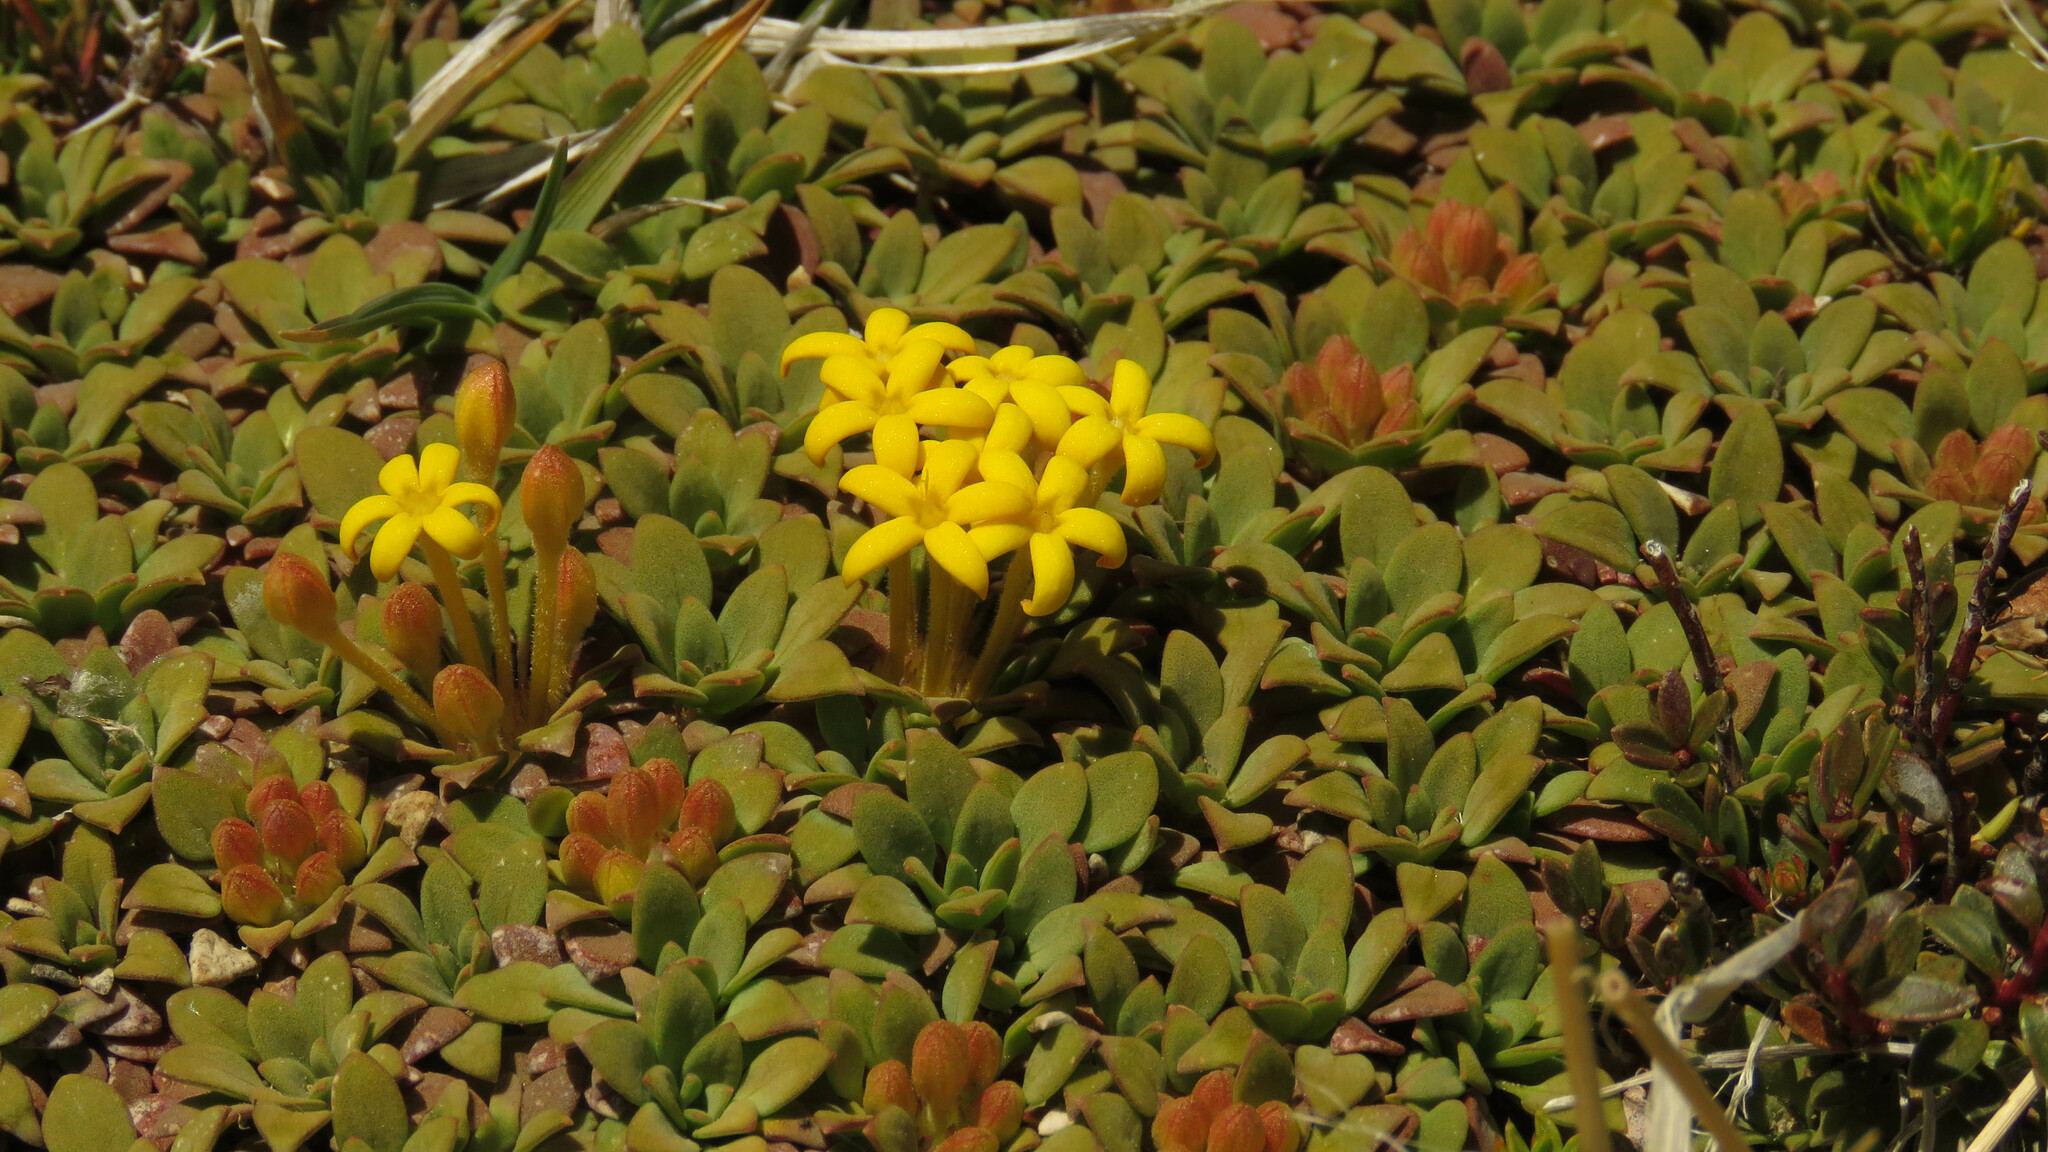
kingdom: Plantae
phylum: Tracheophyta
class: Magnoliopsida
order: Gentianales
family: Rubiaceae
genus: Oreopolus
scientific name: Oreopolus glacialis
